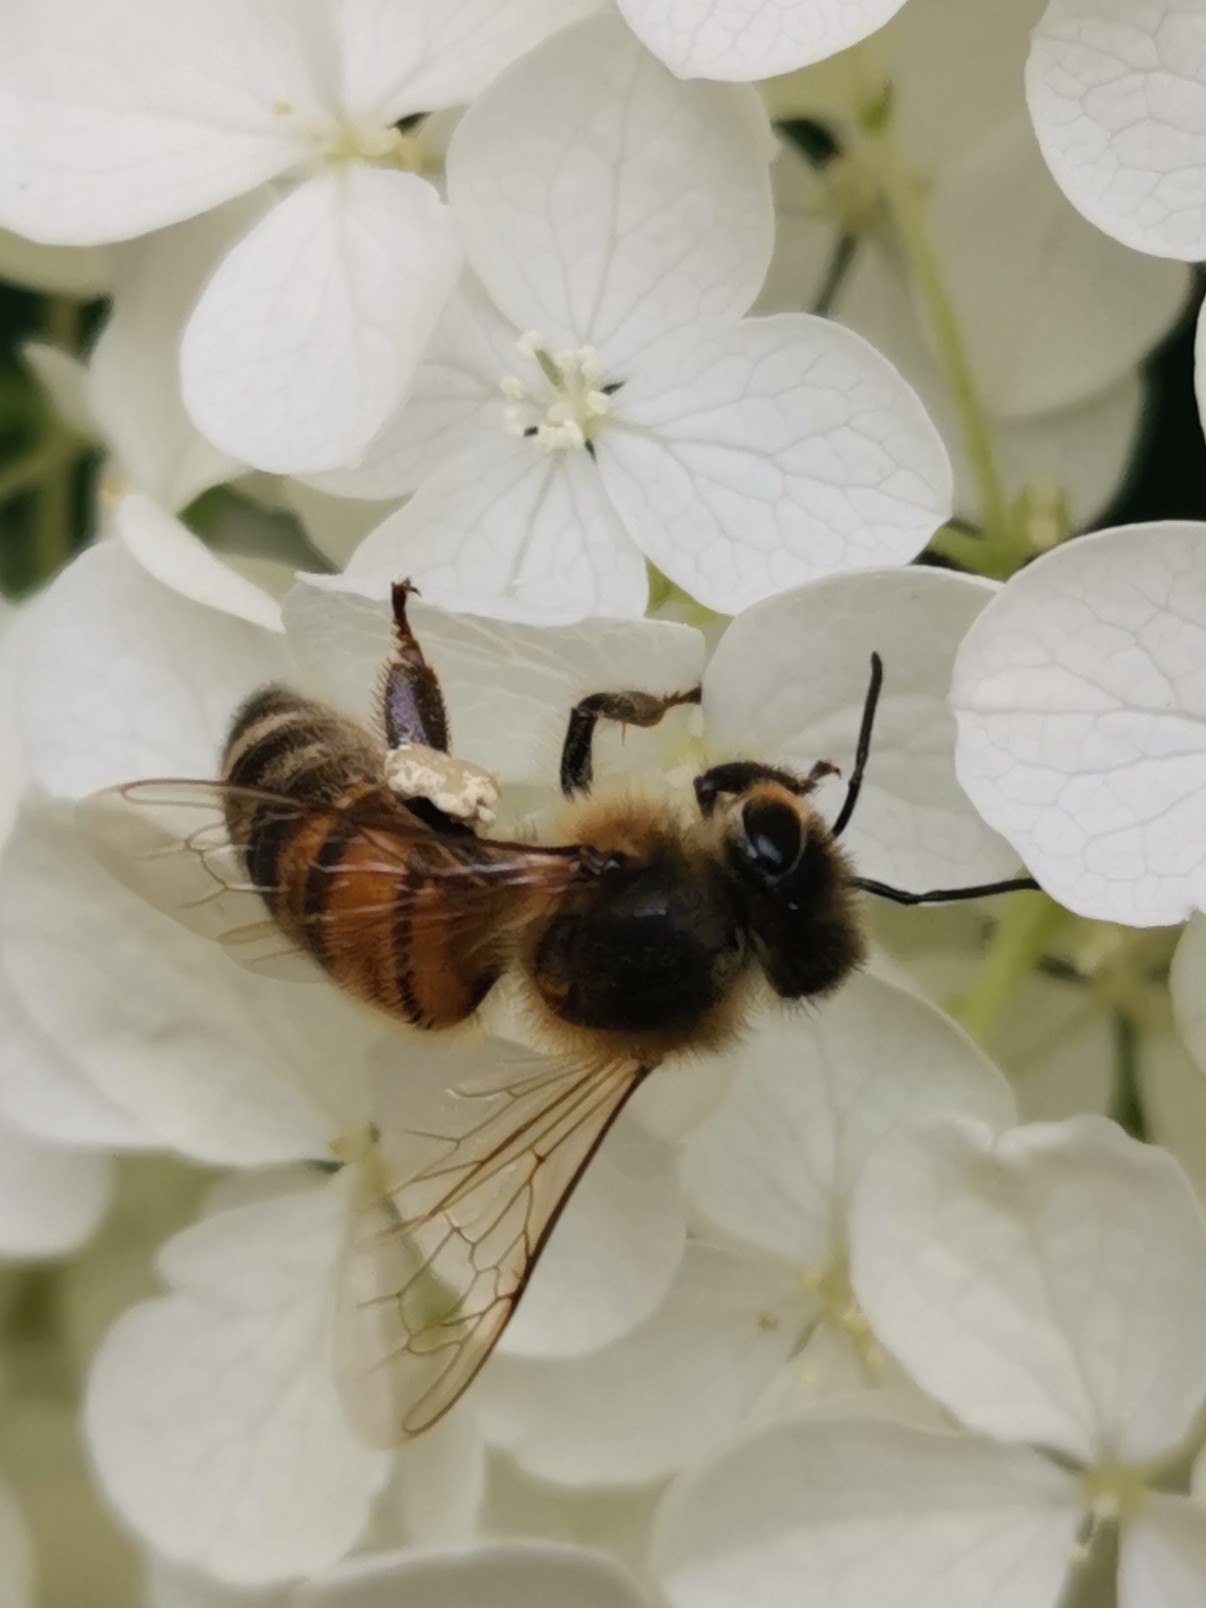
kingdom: Animalia
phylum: Arthropoda
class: Insecta
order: Hymenoptera
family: Apidae
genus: Apis
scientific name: Apis mellifera
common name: Honey bee
